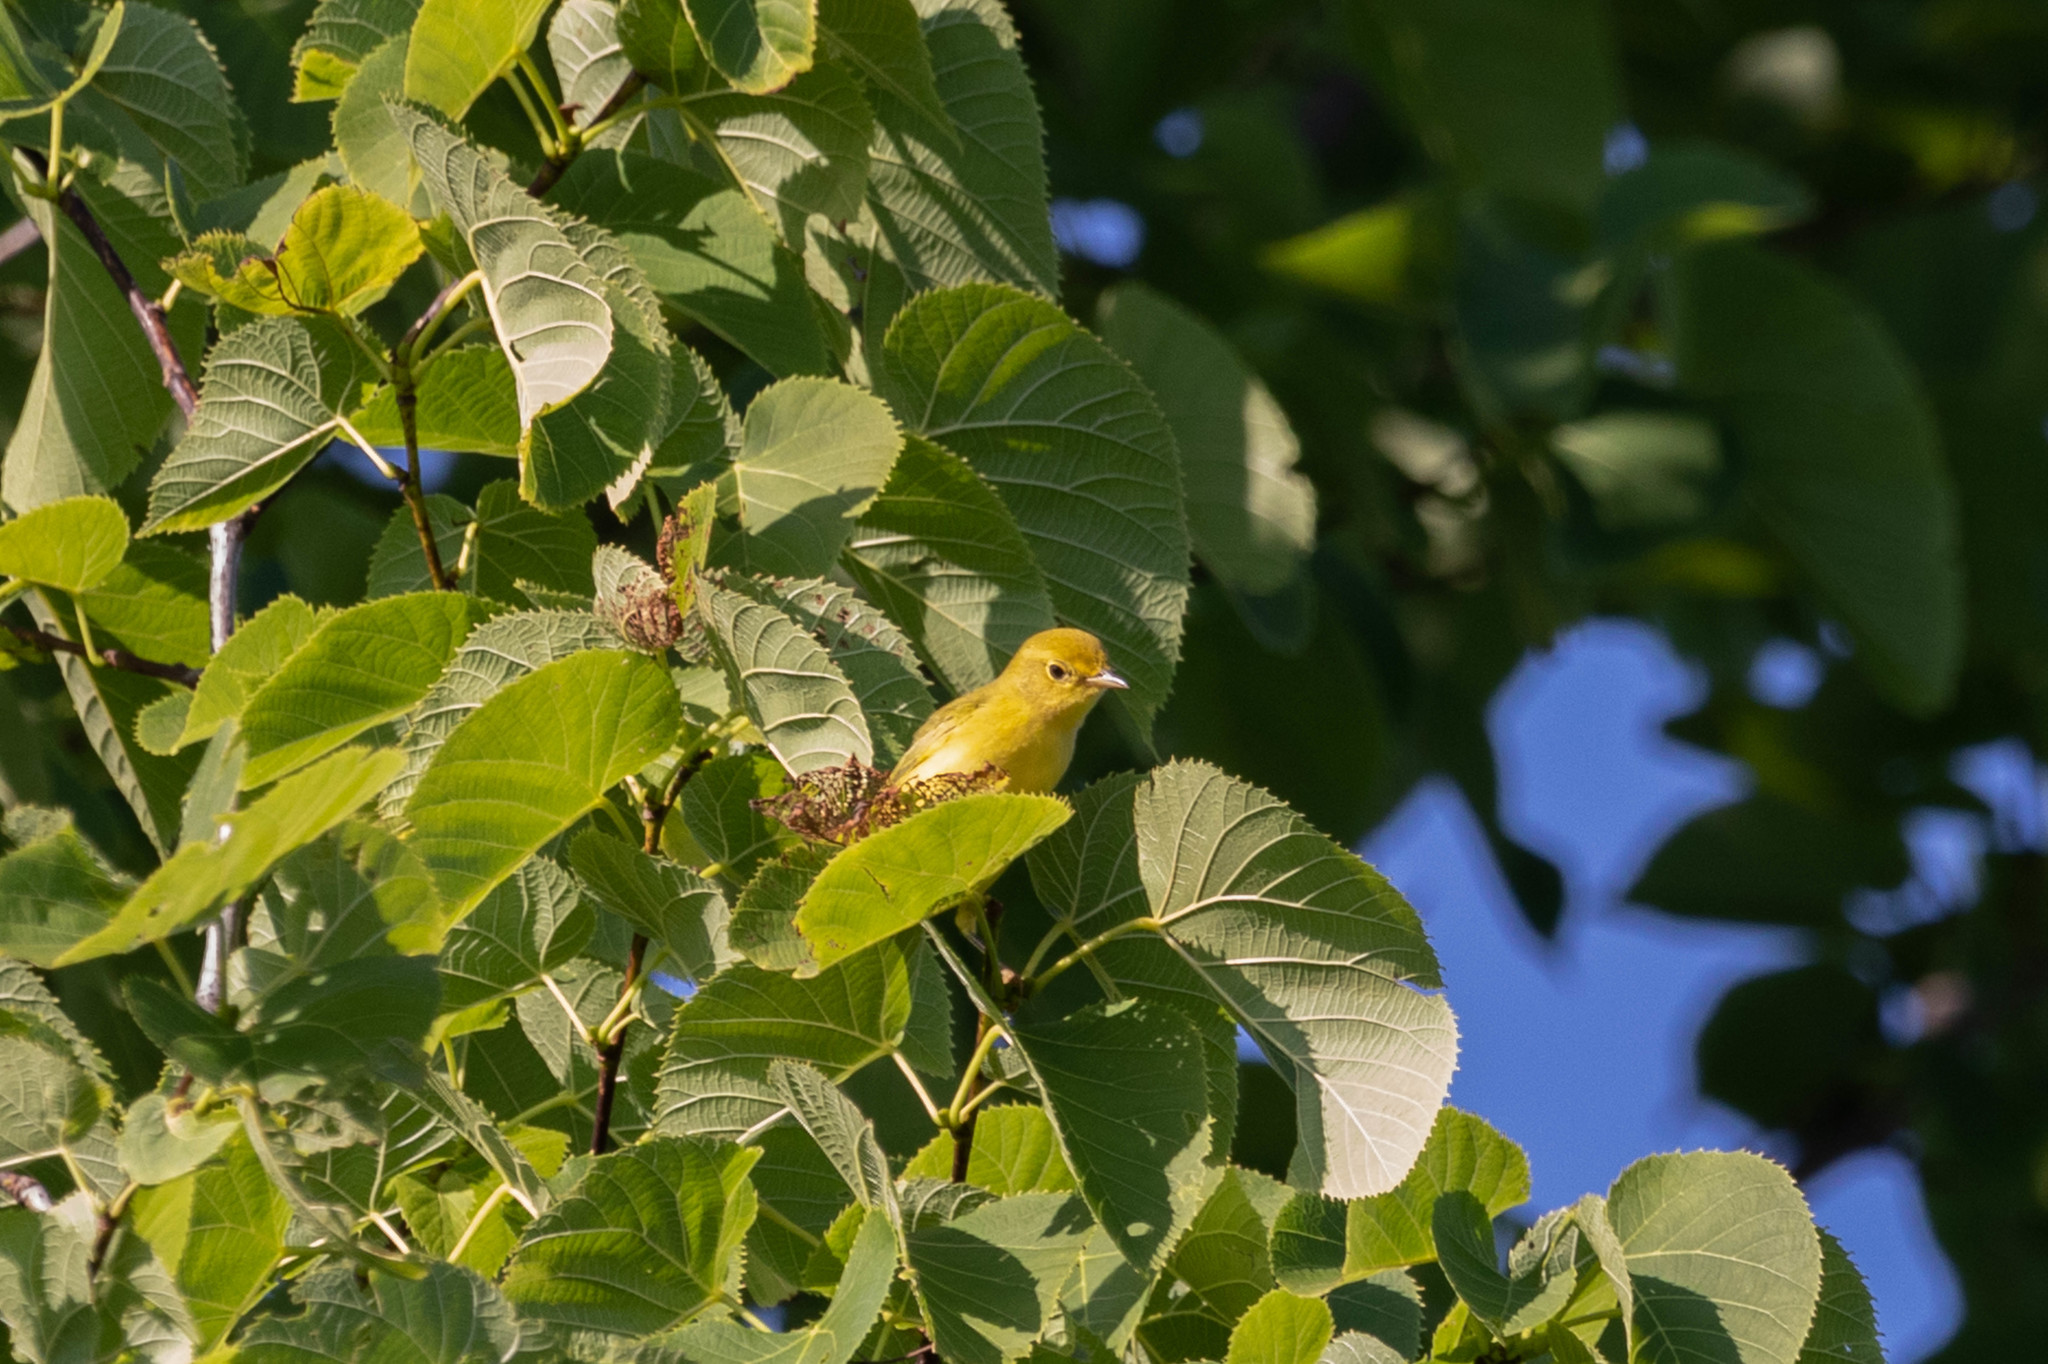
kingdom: Animalia
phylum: Chordata
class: Aves
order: Passeriformes
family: Parulidae
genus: Setophaga
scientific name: Setophaga petechia
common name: Yellow warbler
